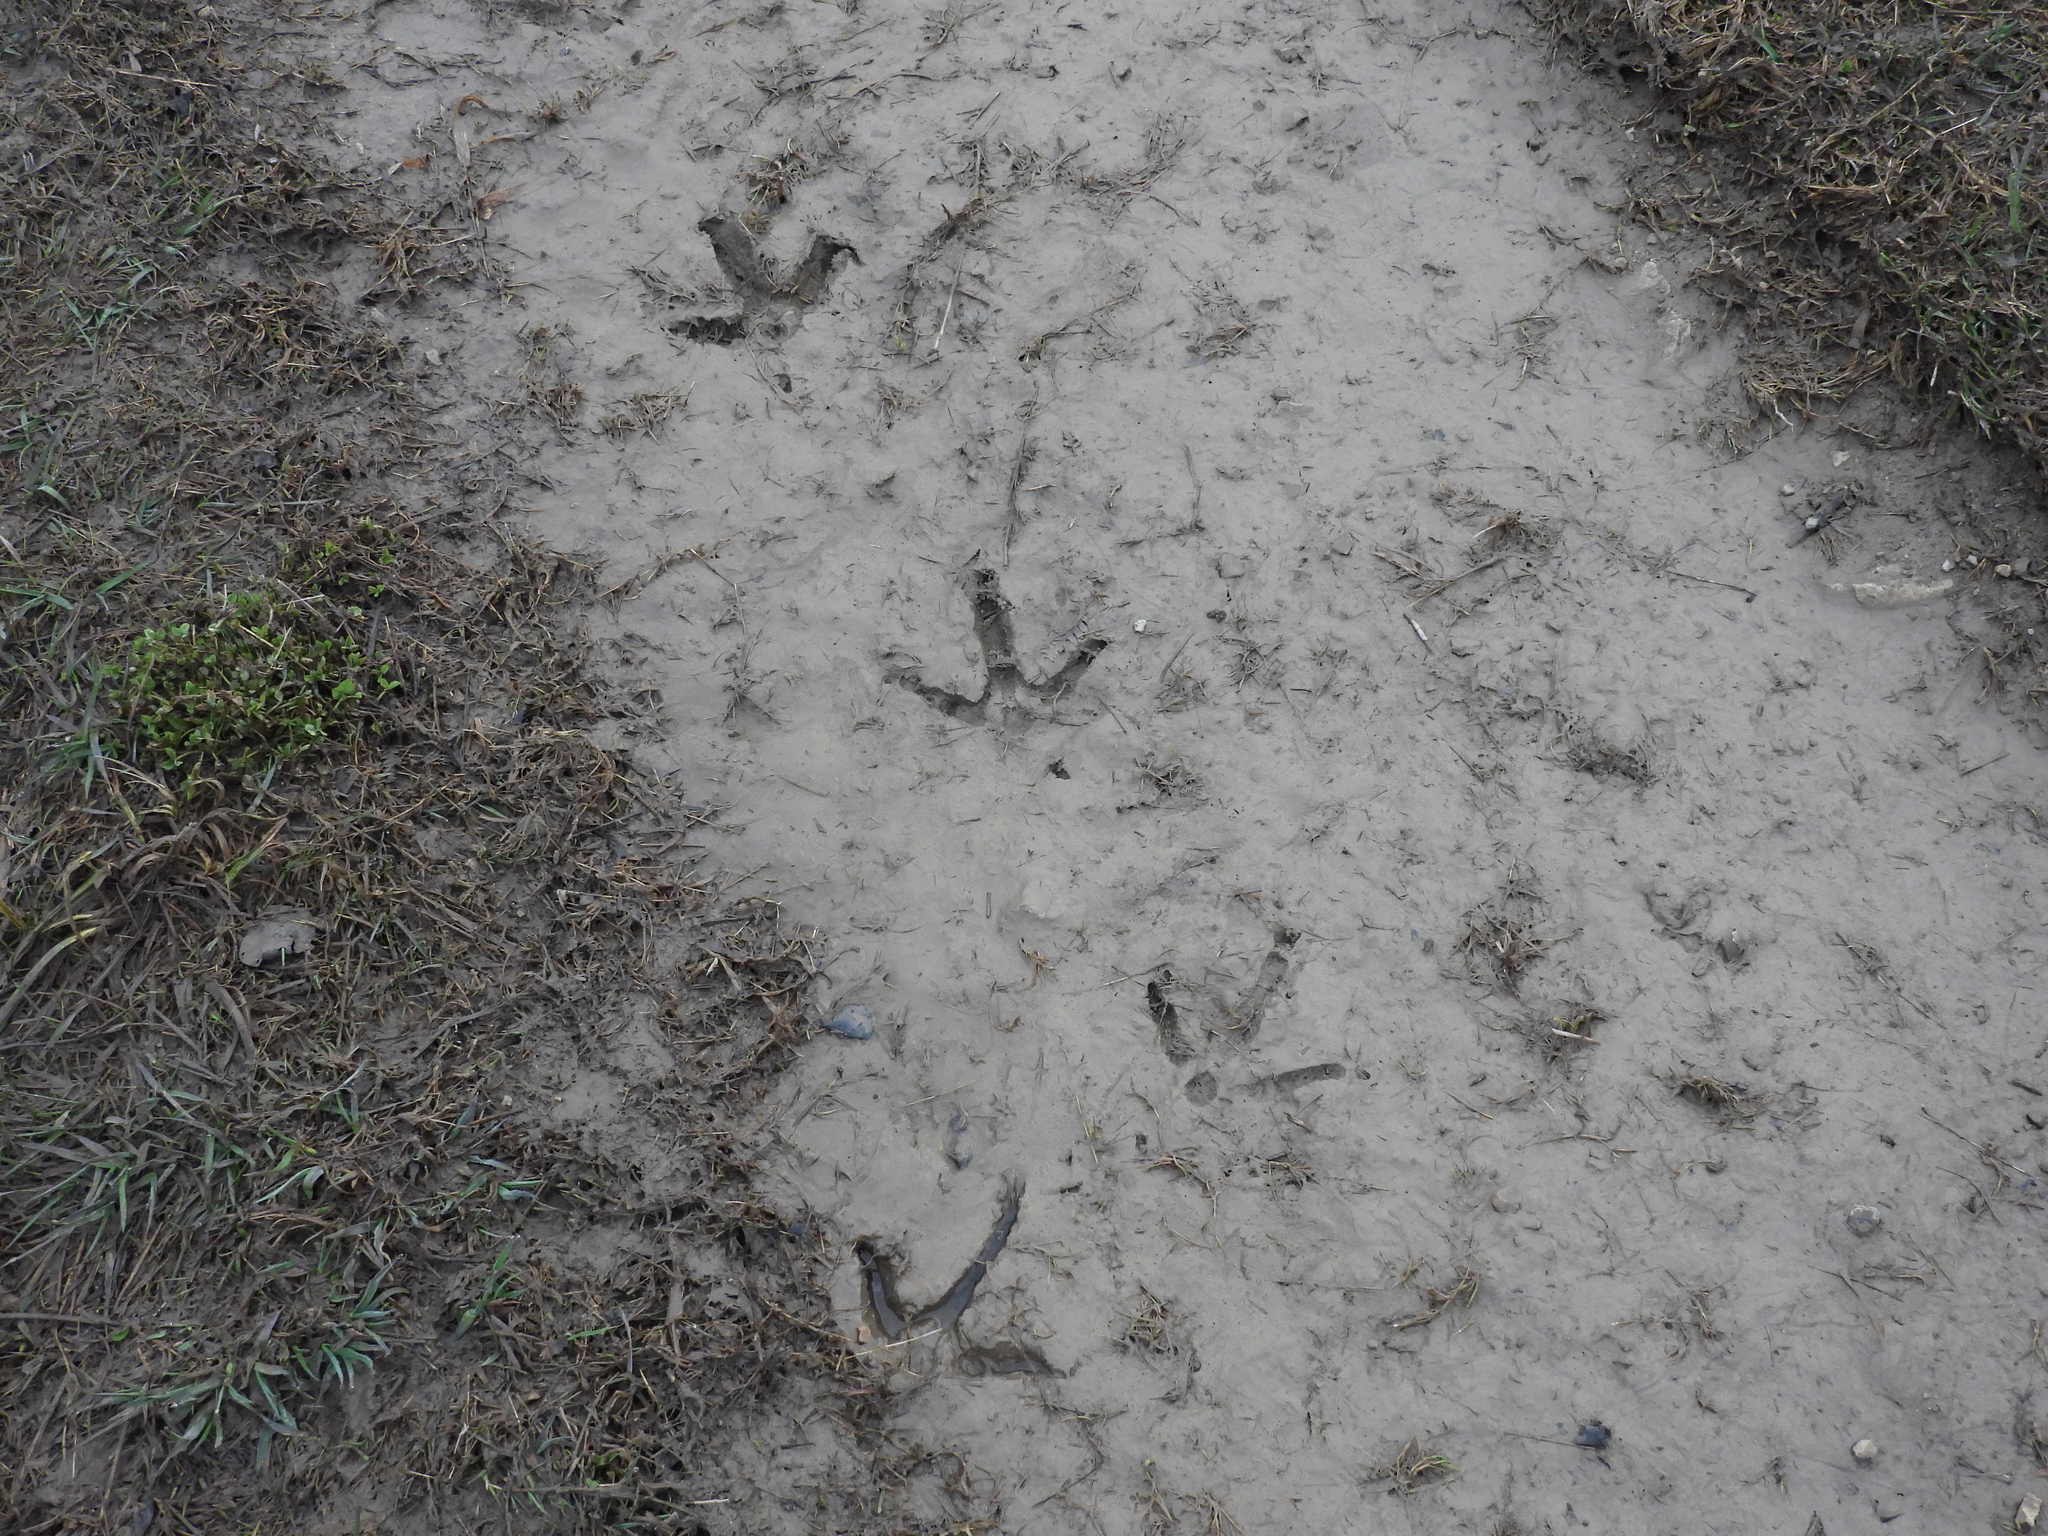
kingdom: Animalia
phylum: Chordata
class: Aves
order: Galliformes
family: Phasianidae
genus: Meleagris
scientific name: Meleagris gallopavo
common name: Wild turkey
